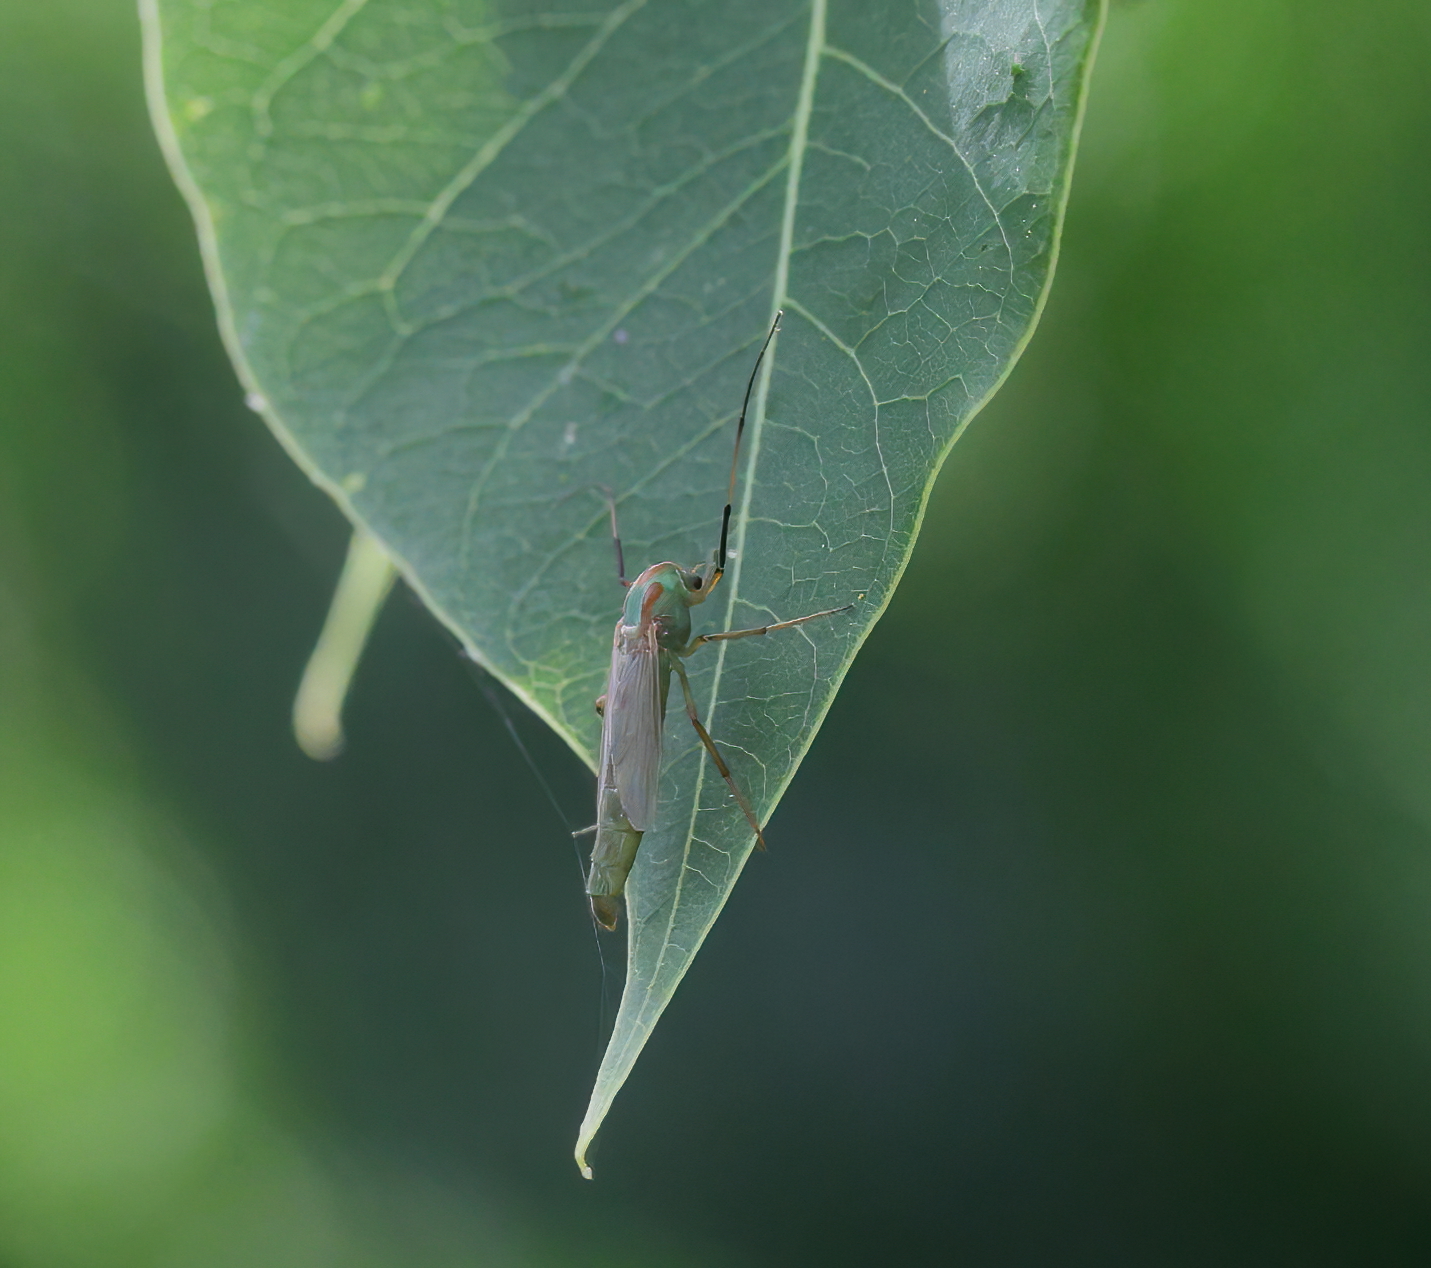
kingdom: Animalia
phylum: Arthropoda
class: Insecta
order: Diptera
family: Chironomidae
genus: Axarus
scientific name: Axarus
